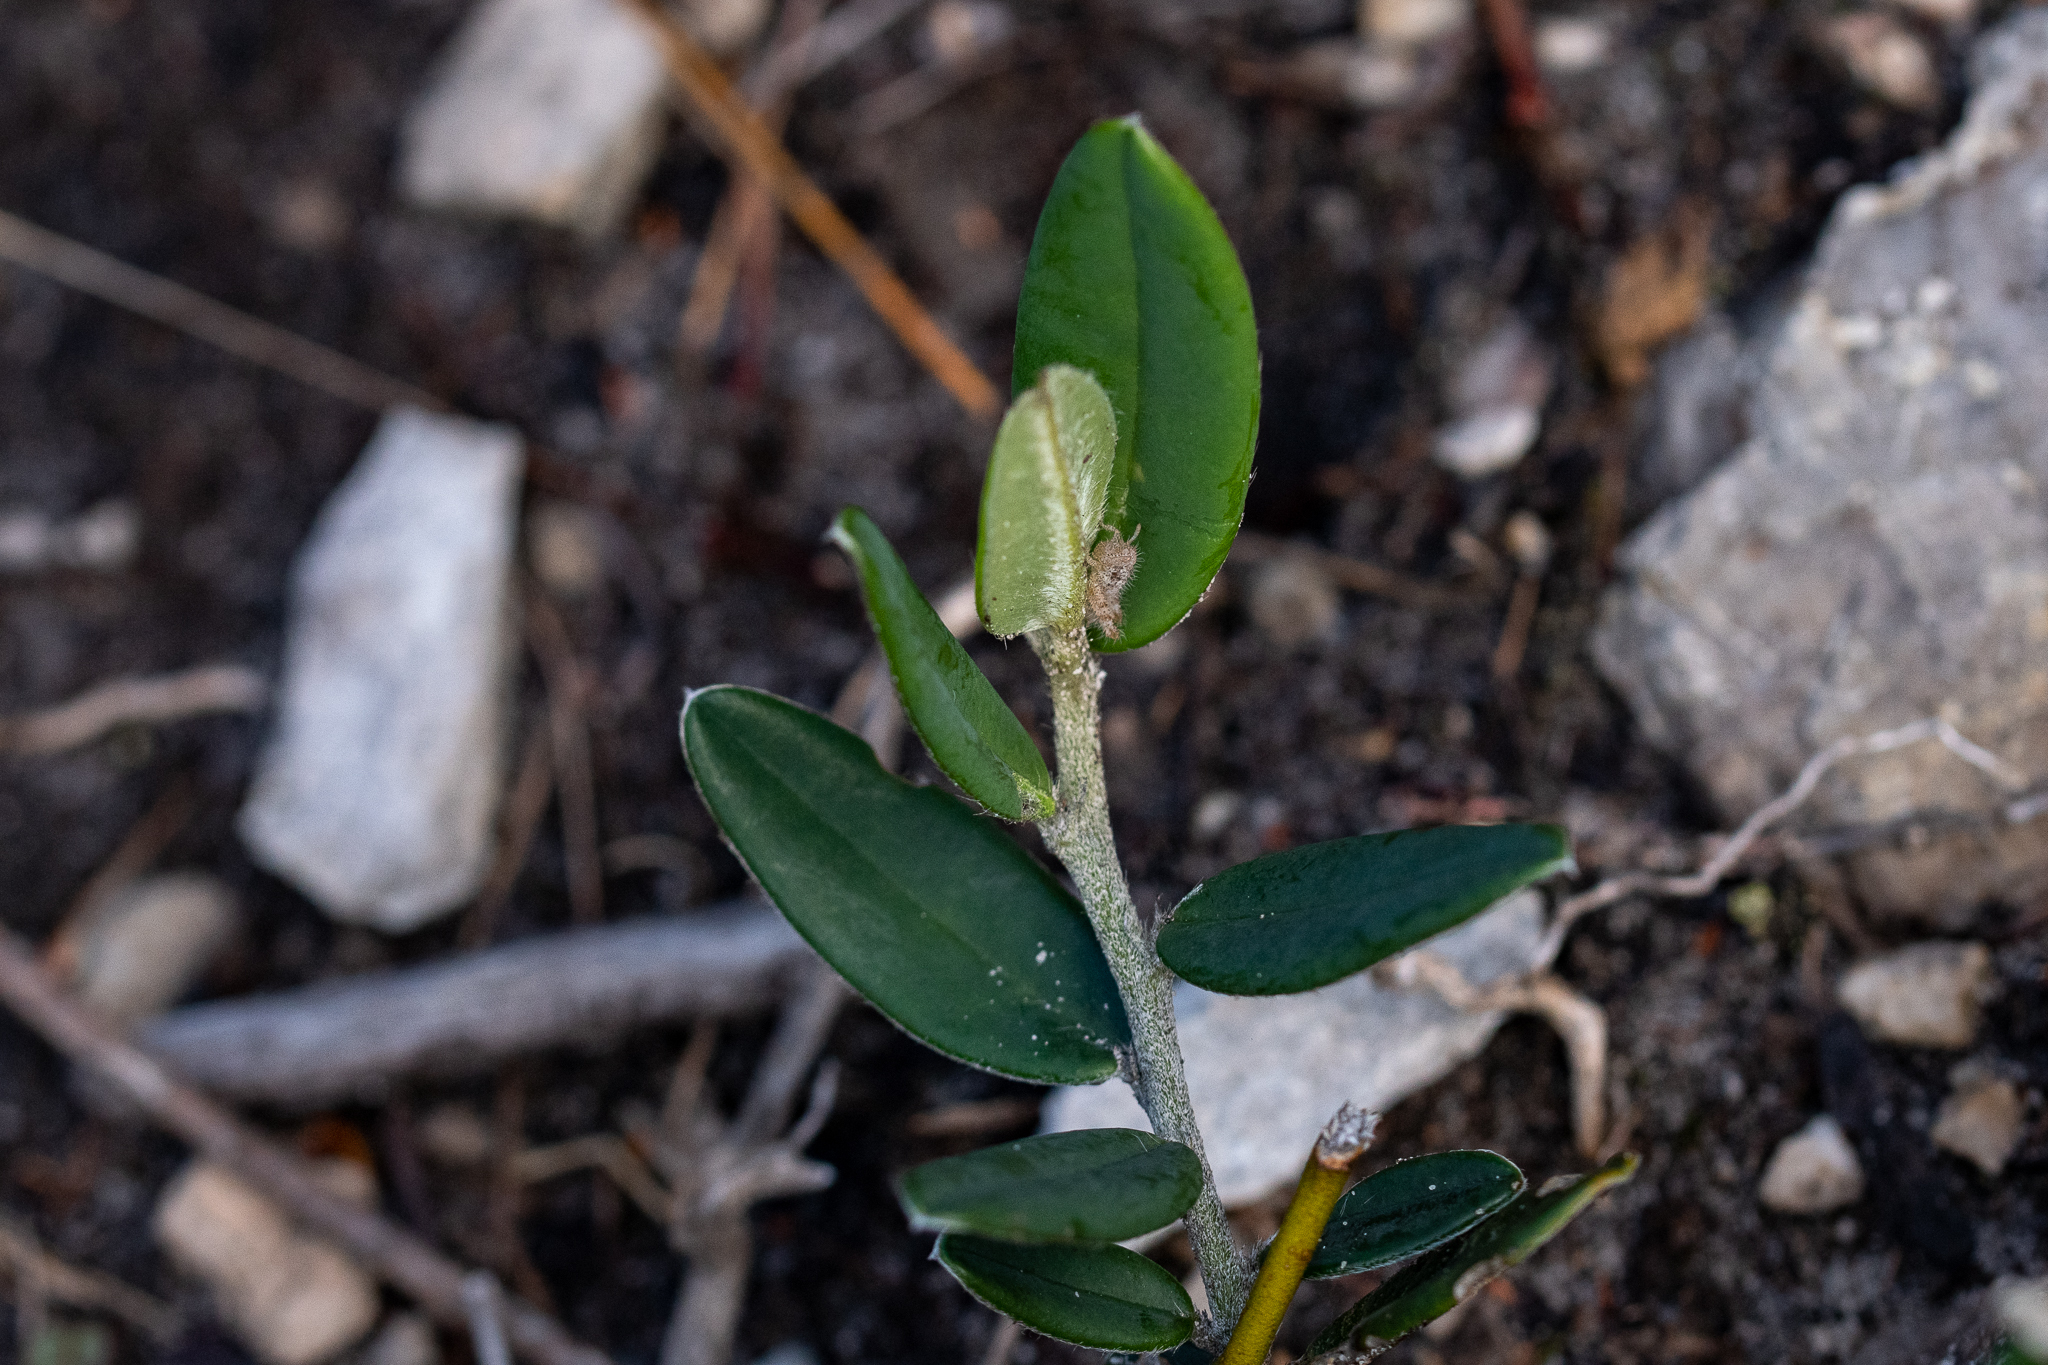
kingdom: Plantae
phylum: Tracheophyta
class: Magnoliopsida
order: Fabales
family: Fabaceae
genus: Podalyria
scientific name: Podalyria oleifolia
